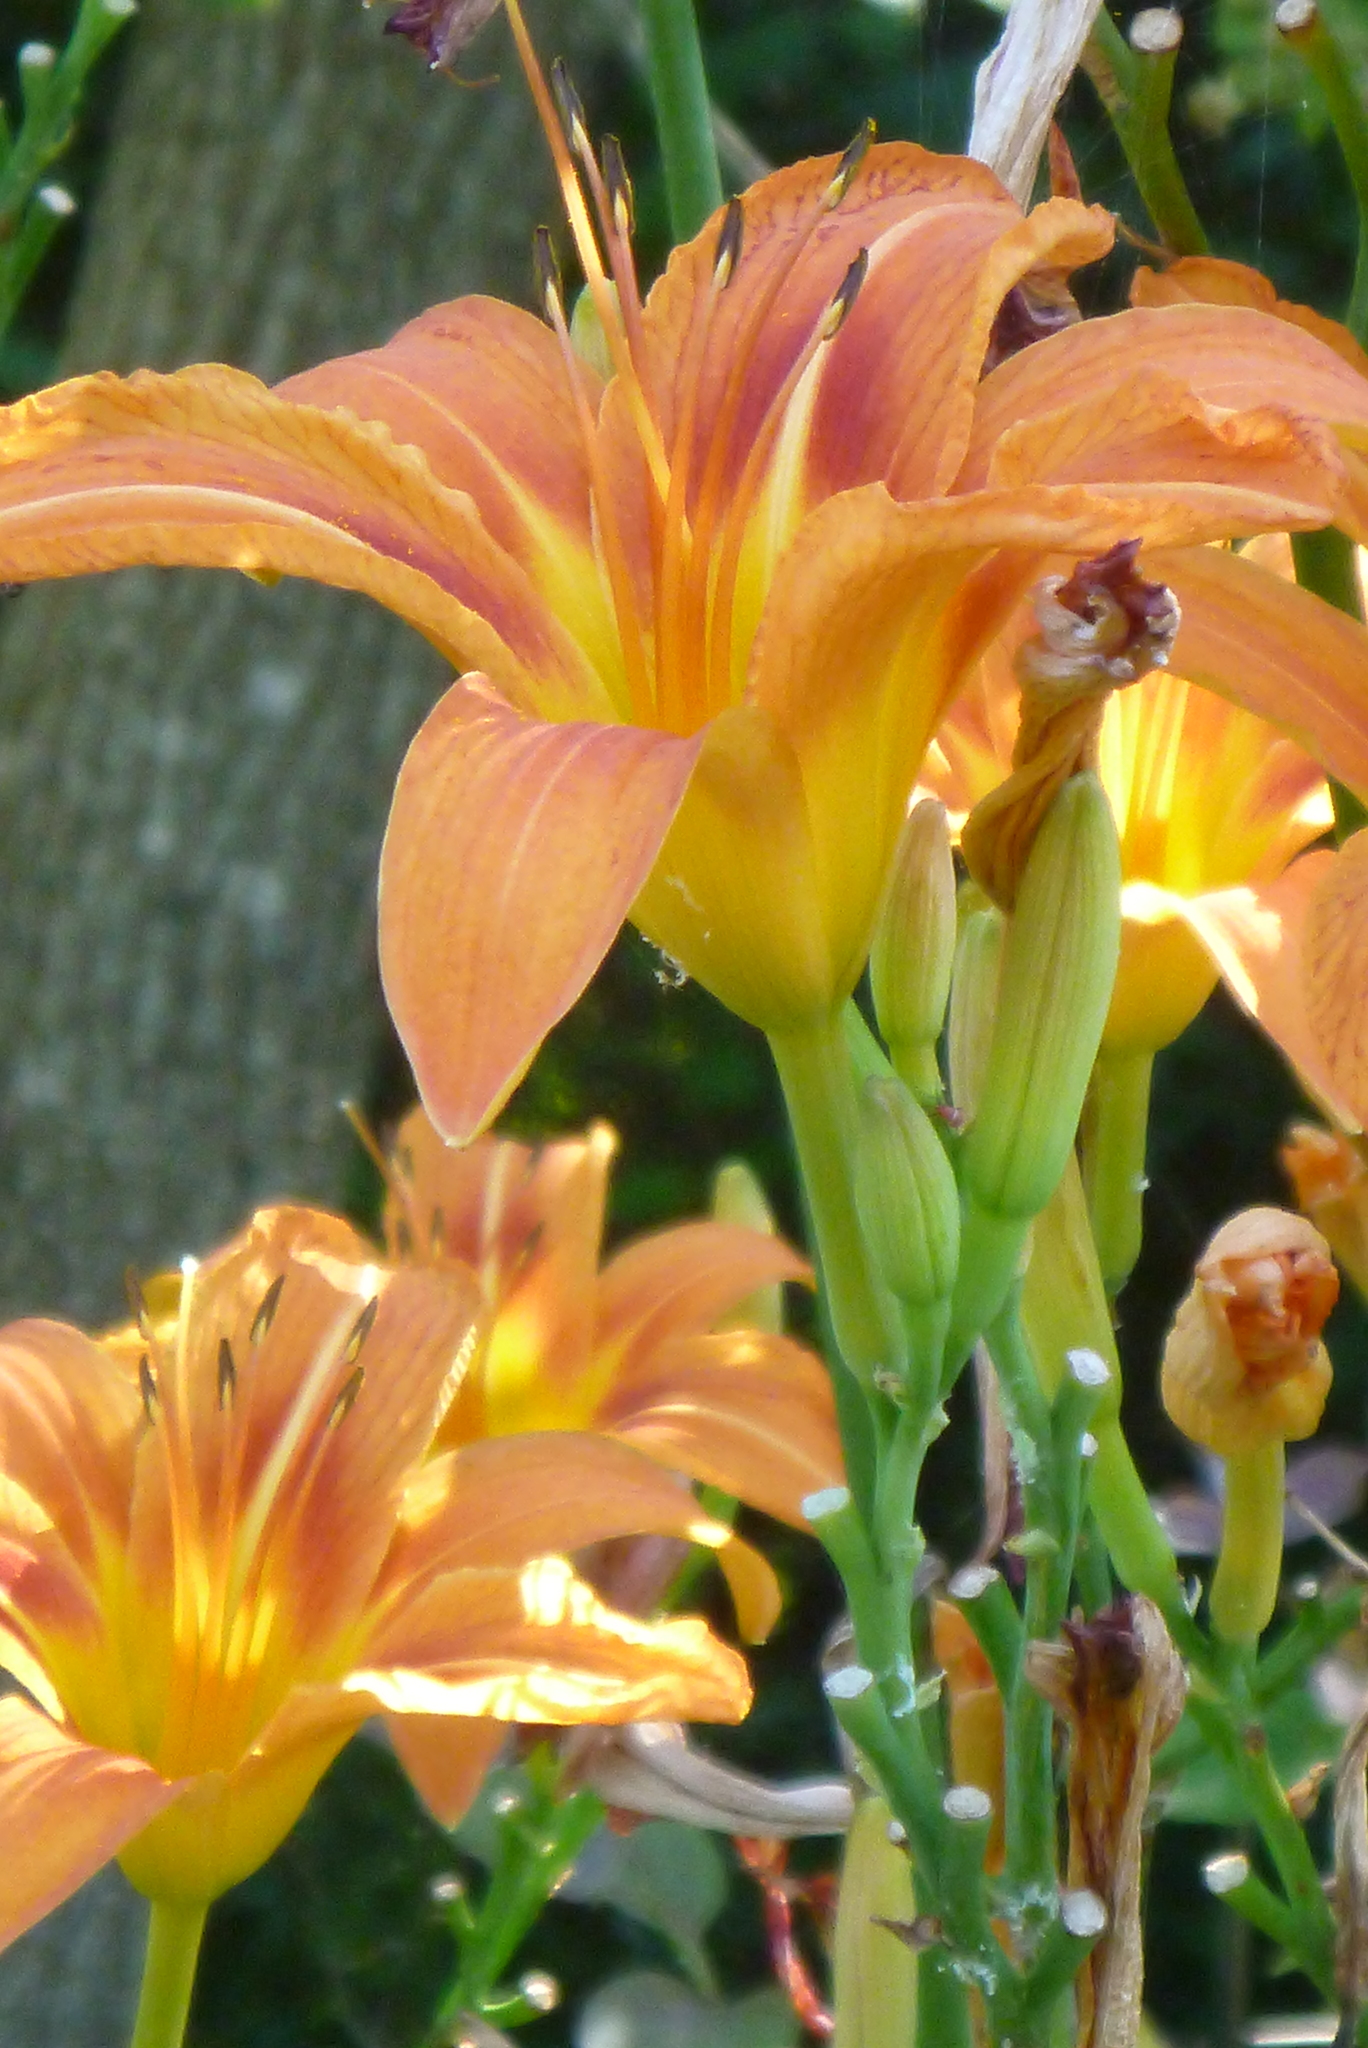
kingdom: Plantae
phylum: Tracheophyta
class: Liliopsida
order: Asparagales
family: Asphodelaceae
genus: Hemerocallis
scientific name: Hemerocallis fulva
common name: Orange day-lily
